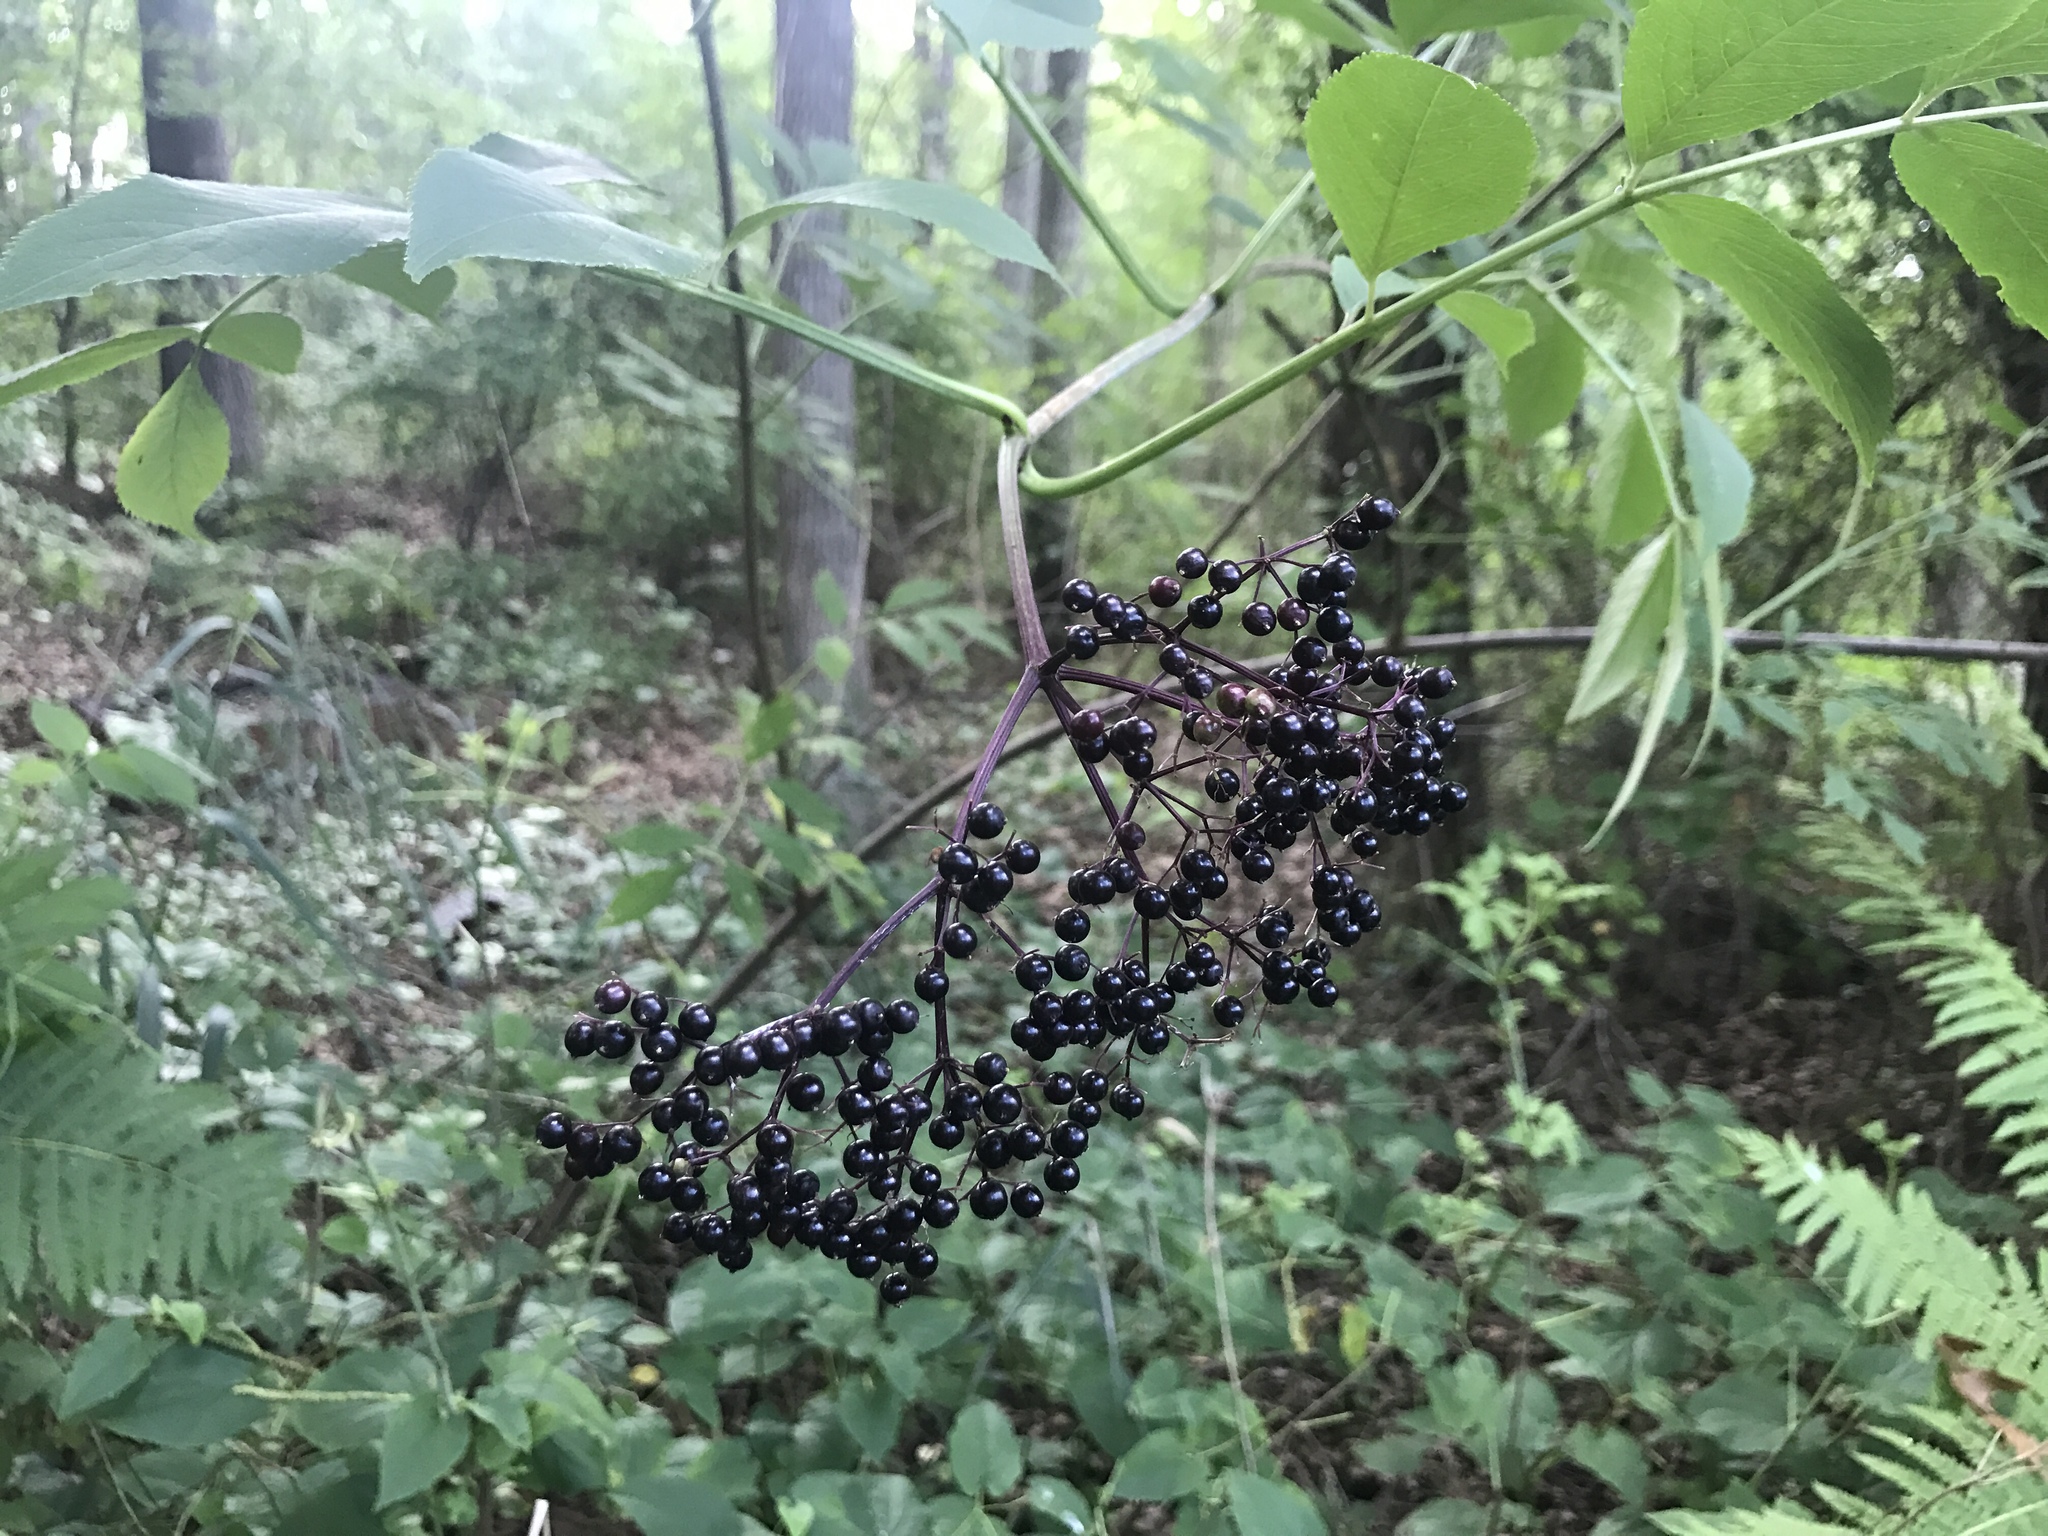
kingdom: Plantae
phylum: Tracheophyta
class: Magnoliopsida
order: Dipsacales
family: Viburnaceae
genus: Sambucus
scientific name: Sambucus canadensis
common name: American elder
